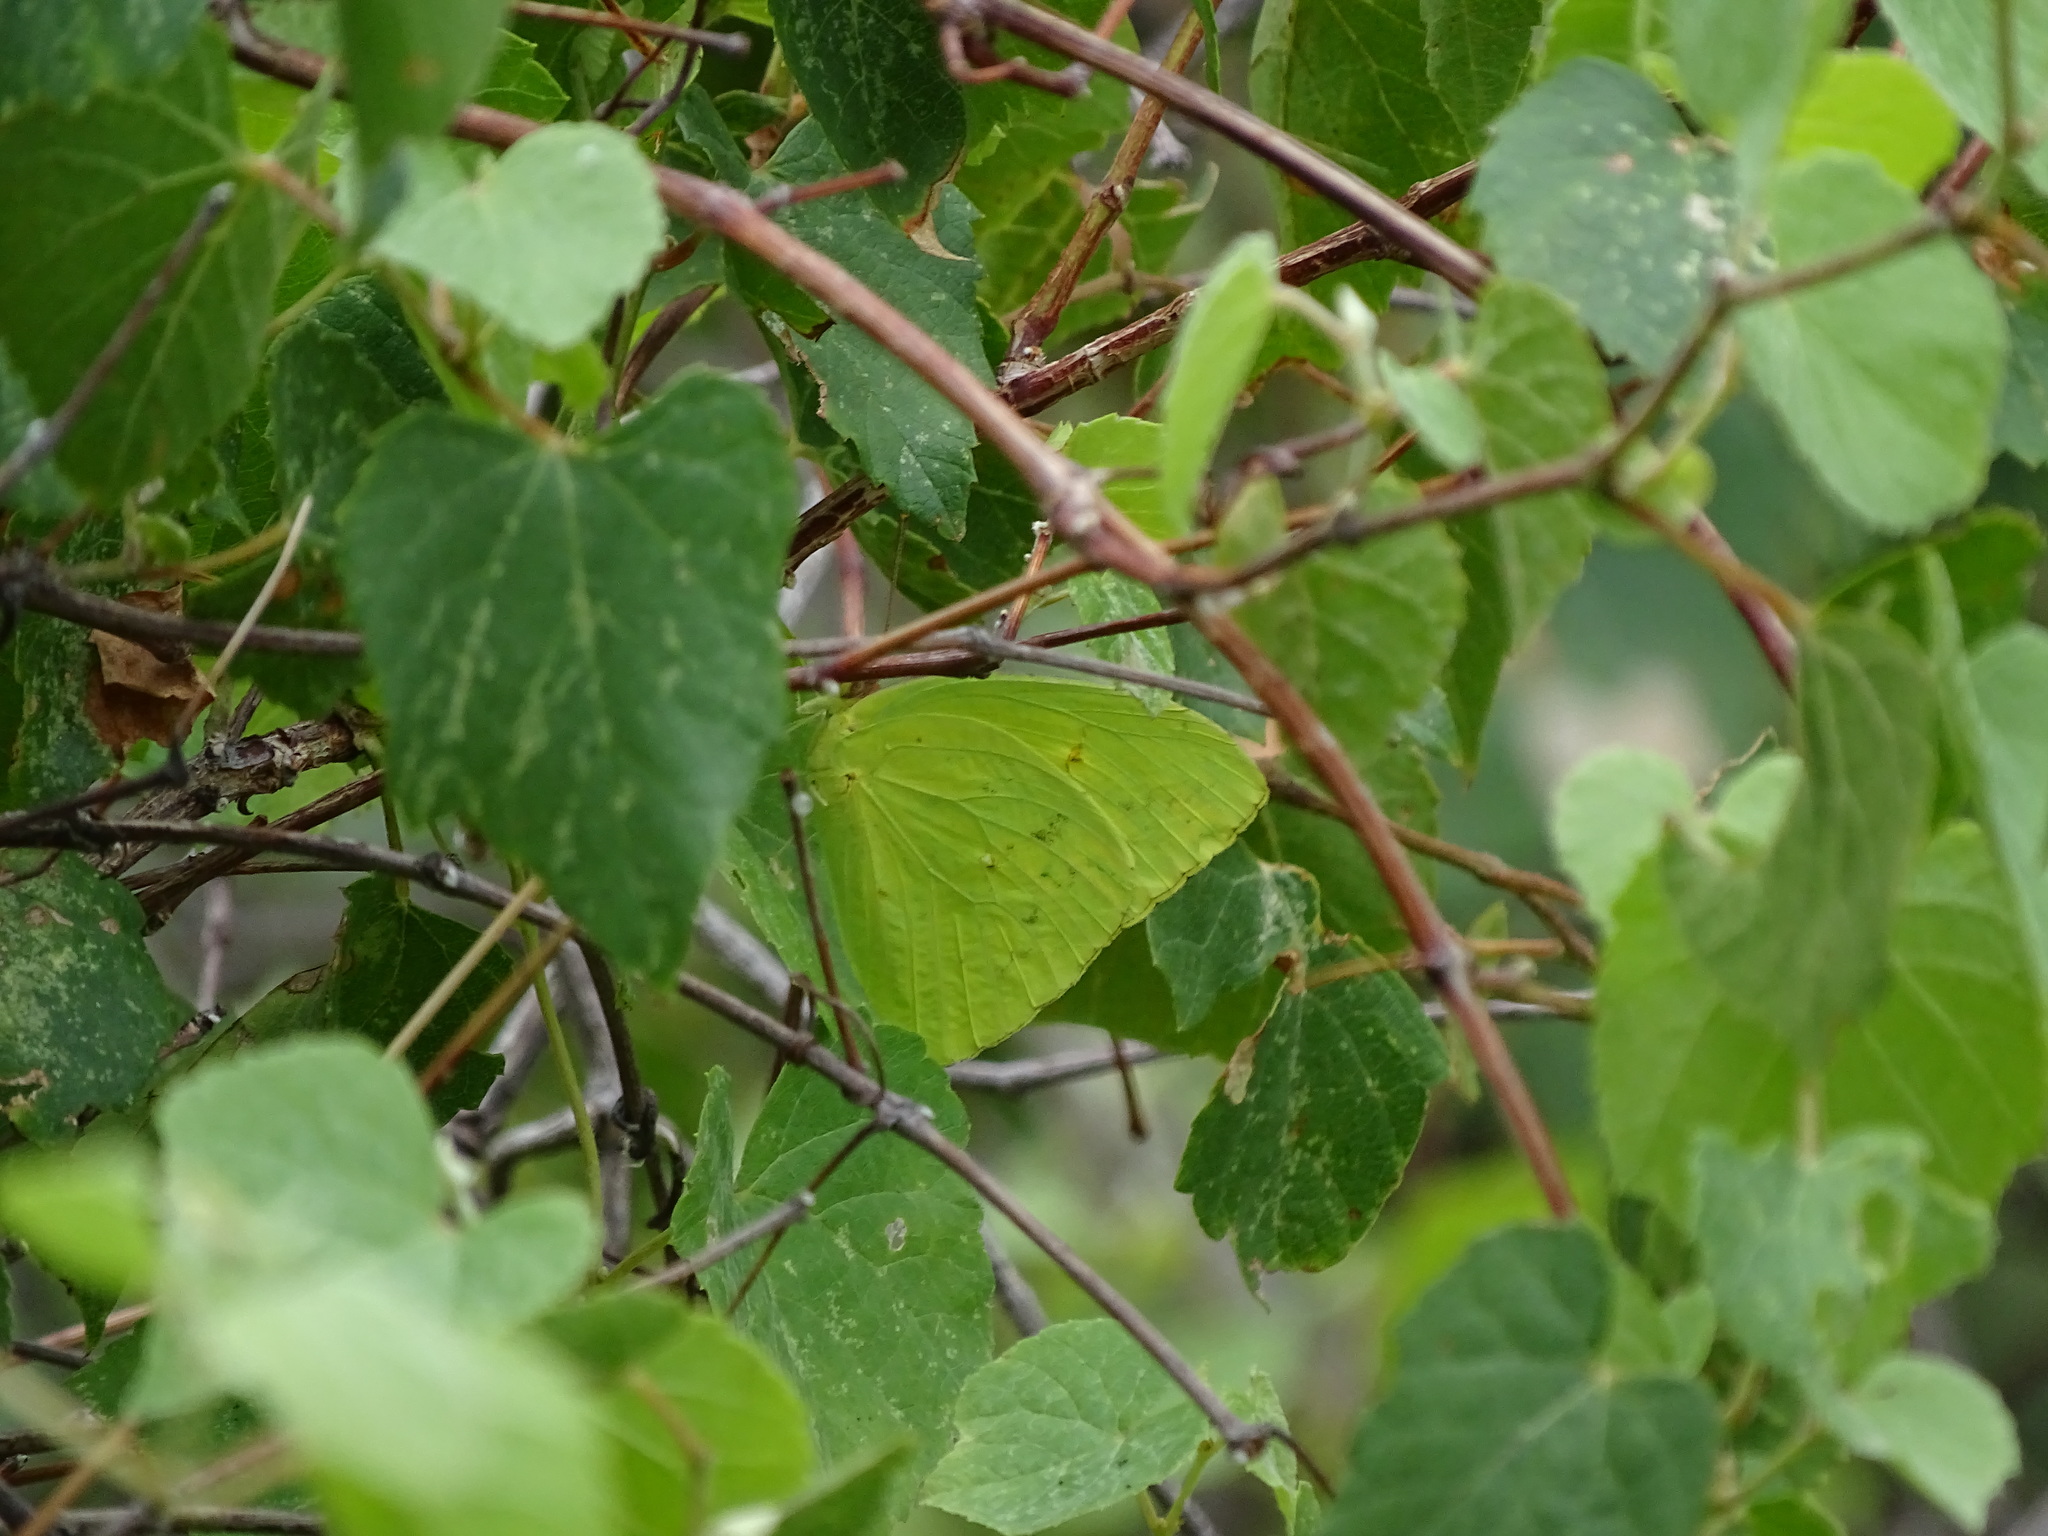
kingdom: Animalia
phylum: Arthropoda
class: Insecta
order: Lepidoptera
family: Pieridae
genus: Phoebis
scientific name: Phoebis sennae
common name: Cloudless sulphur
